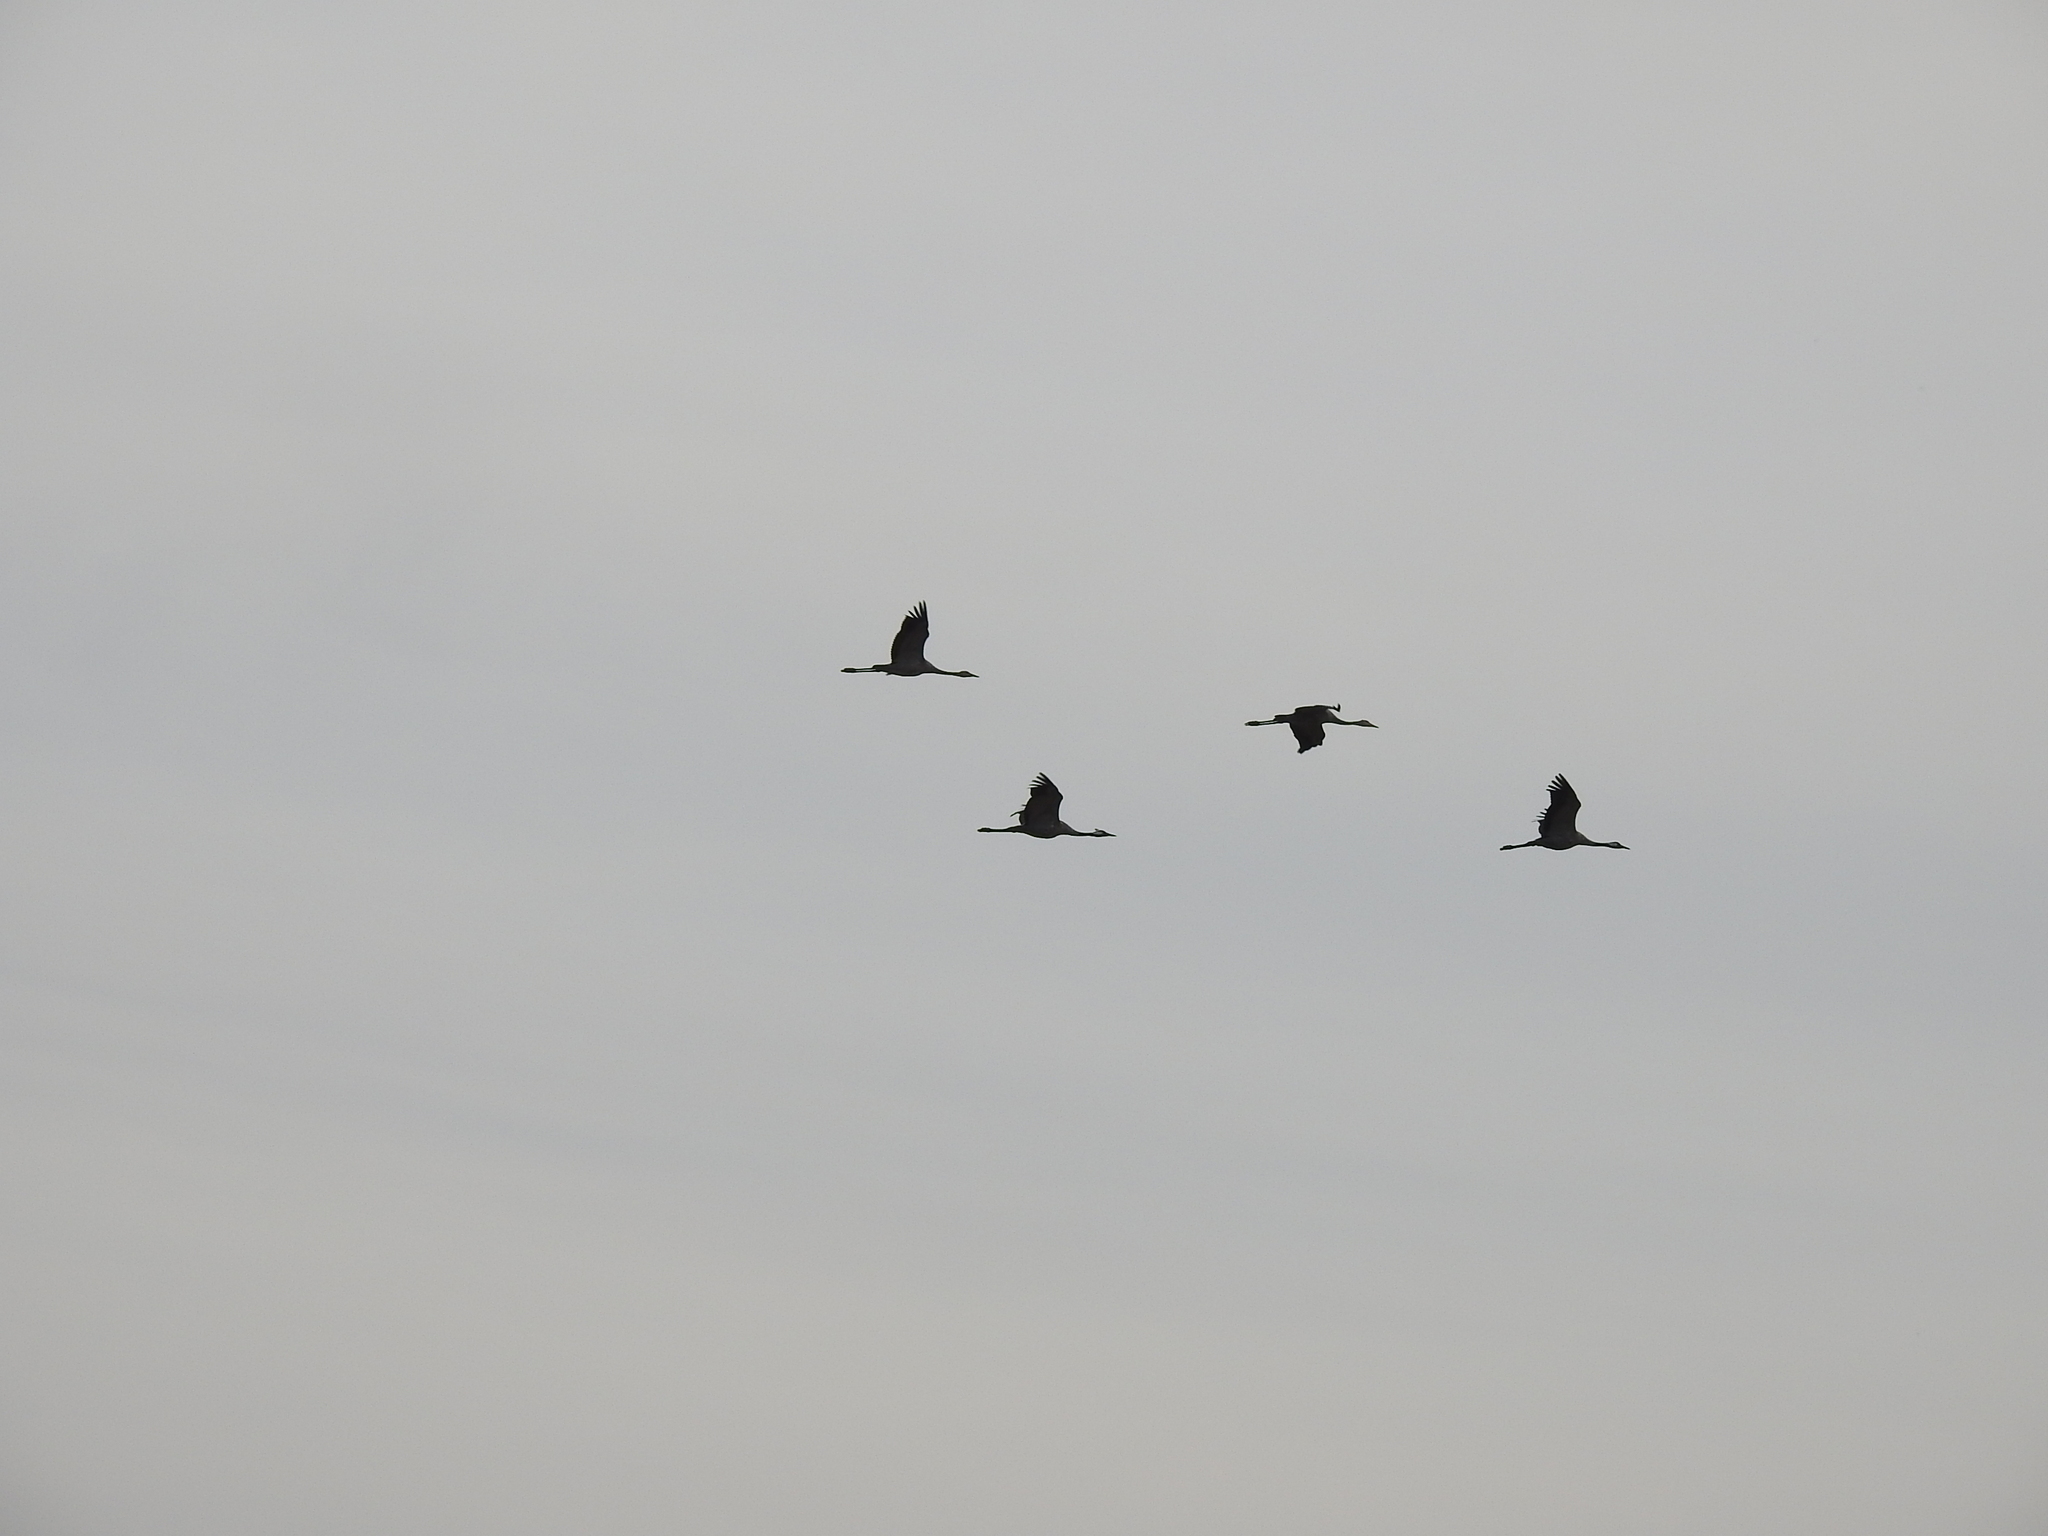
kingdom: Animalia
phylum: Chordata
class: Aves
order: Gruiformes
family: Gruidae
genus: Grus
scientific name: Grus grus
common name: Common crane
